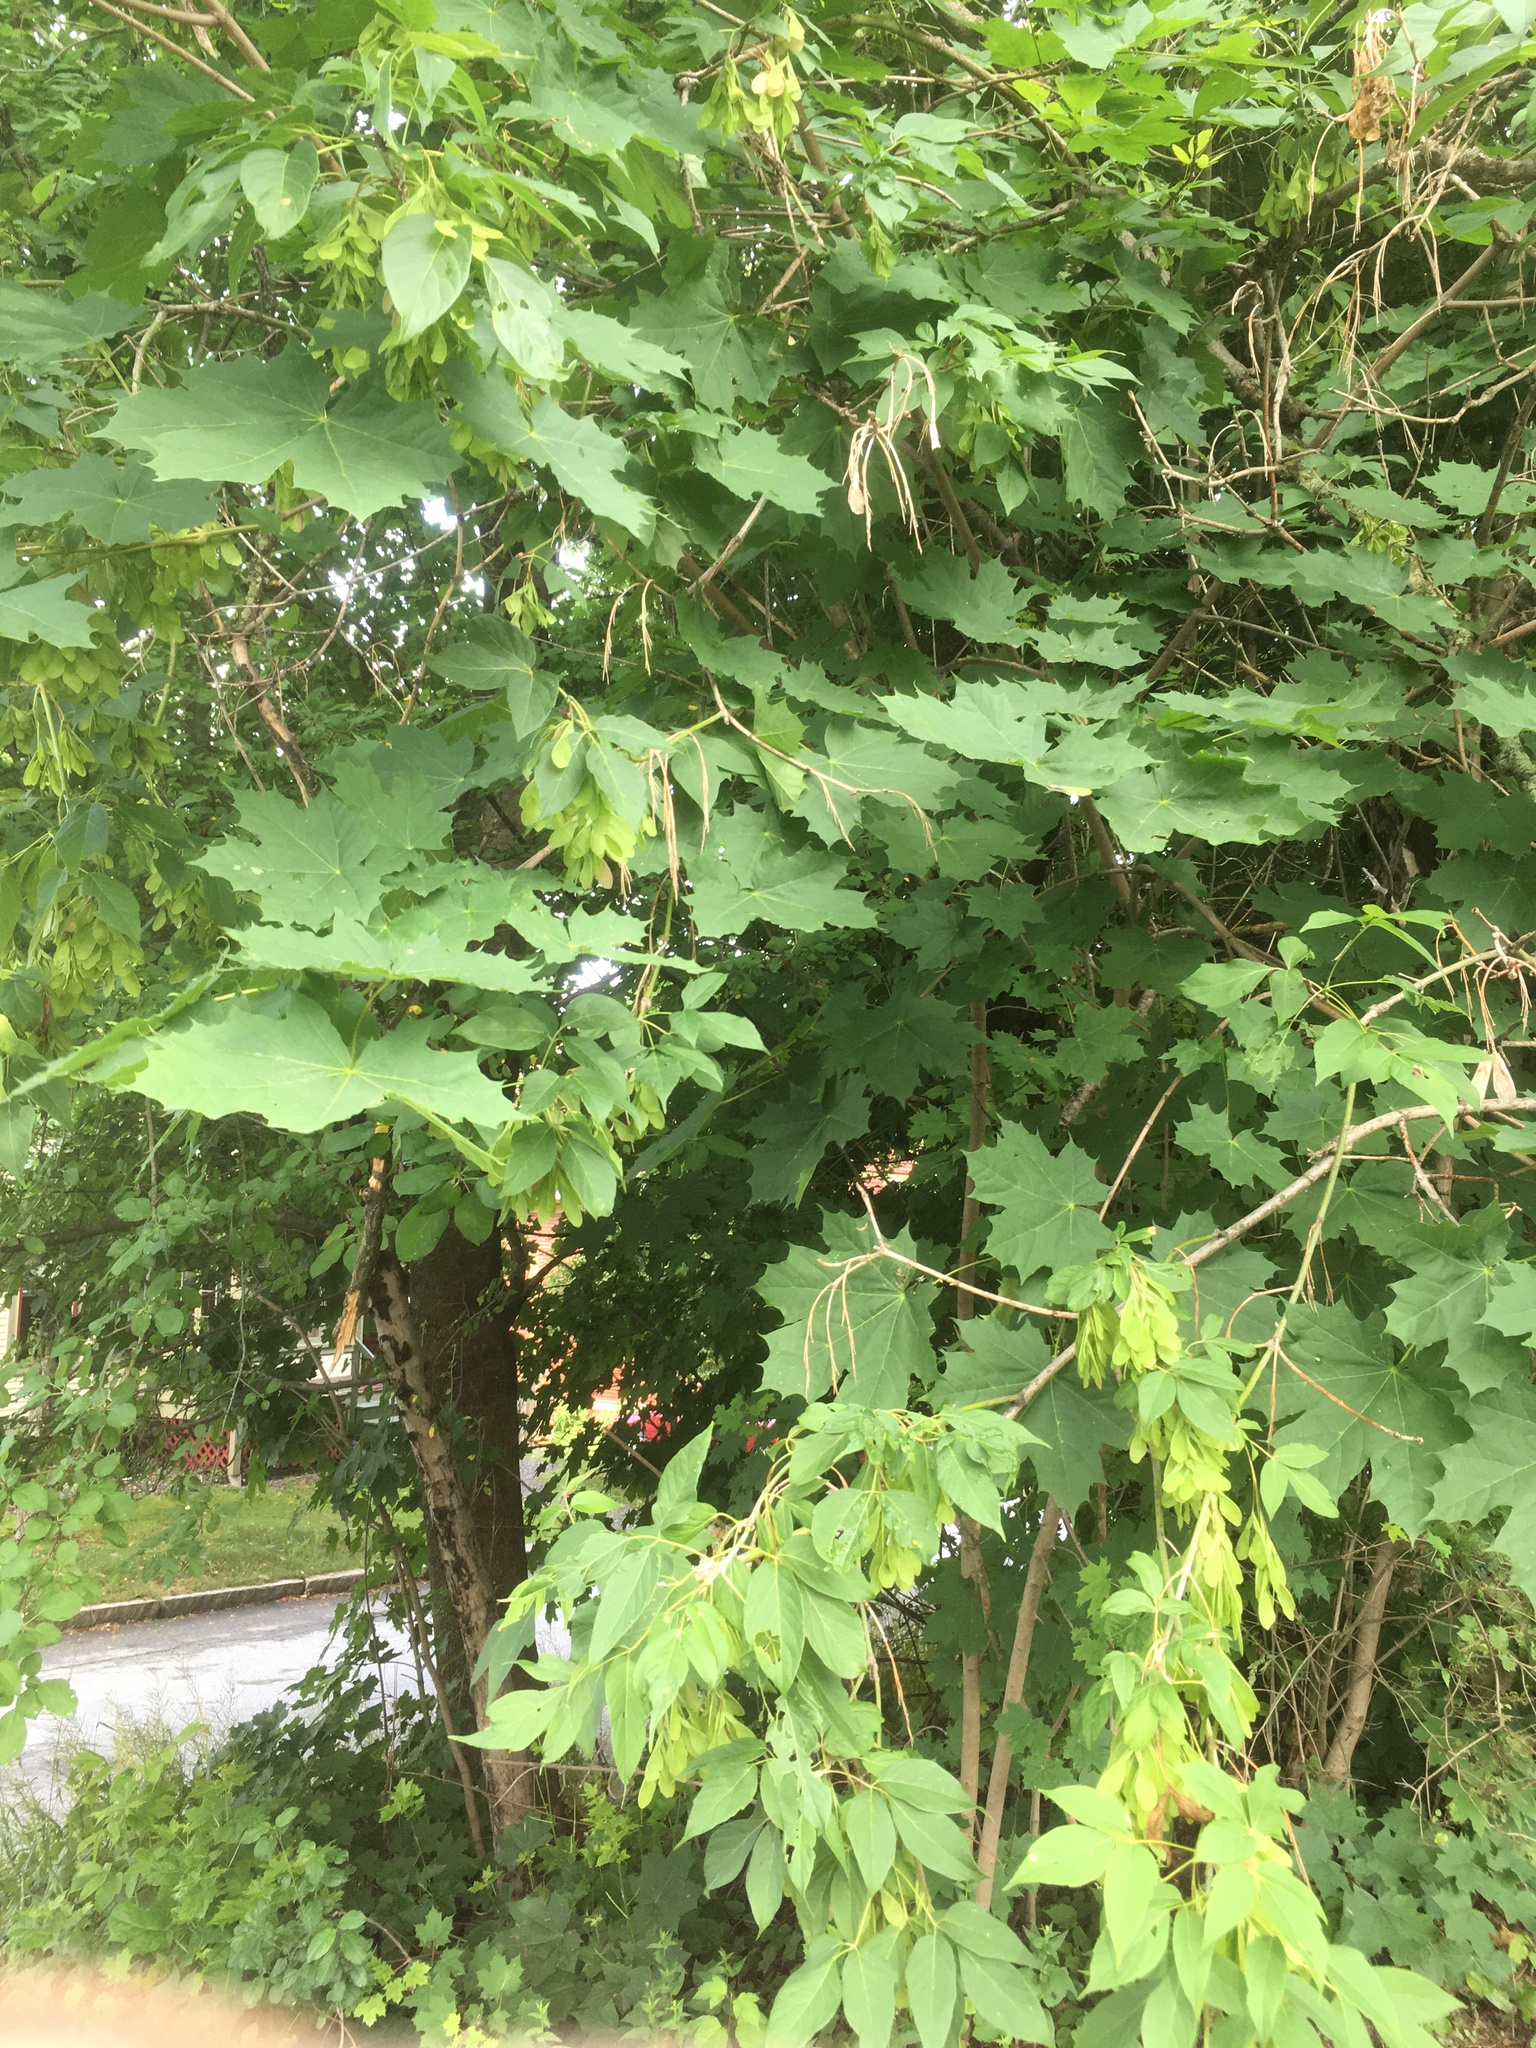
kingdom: Plantae
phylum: Tracheophyta
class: Magnoliopsida
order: Sapindales
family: Sapindaceae
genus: Acer
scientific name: Acer platanoides
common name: Norway maple
